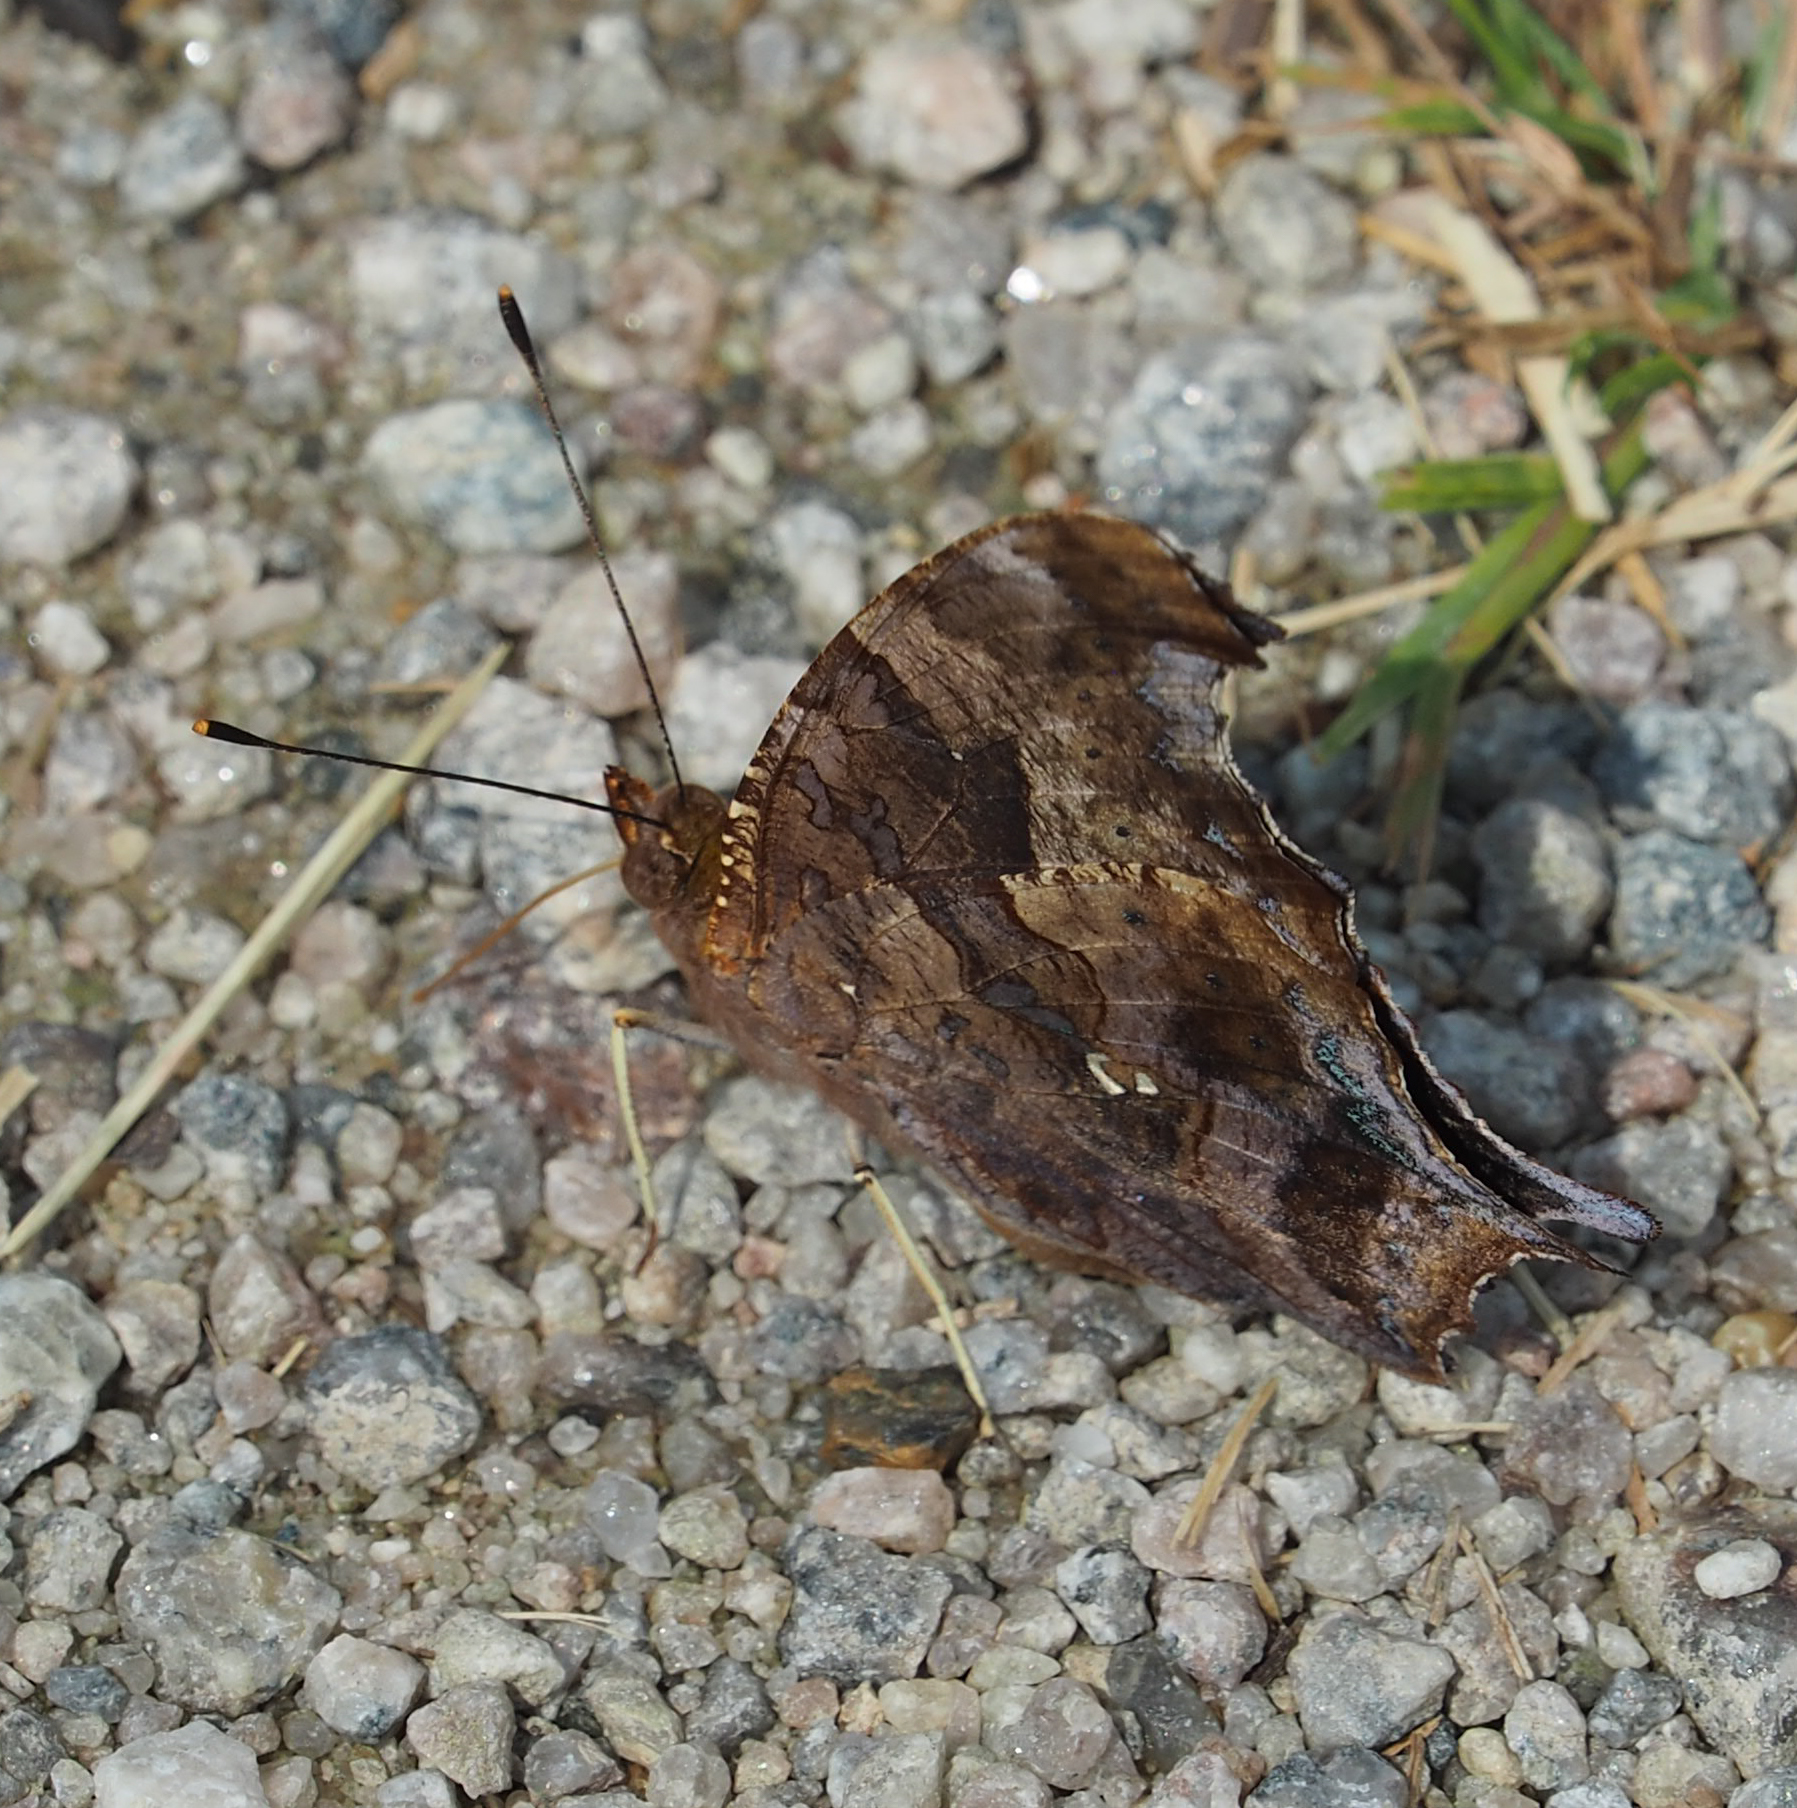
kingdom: Animalia
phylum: Arthropoda
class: Insecta
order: Lepidoptera
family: Nymphalidae
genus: Polygonia
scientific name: Polygonia interrogationis
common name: Question mark
